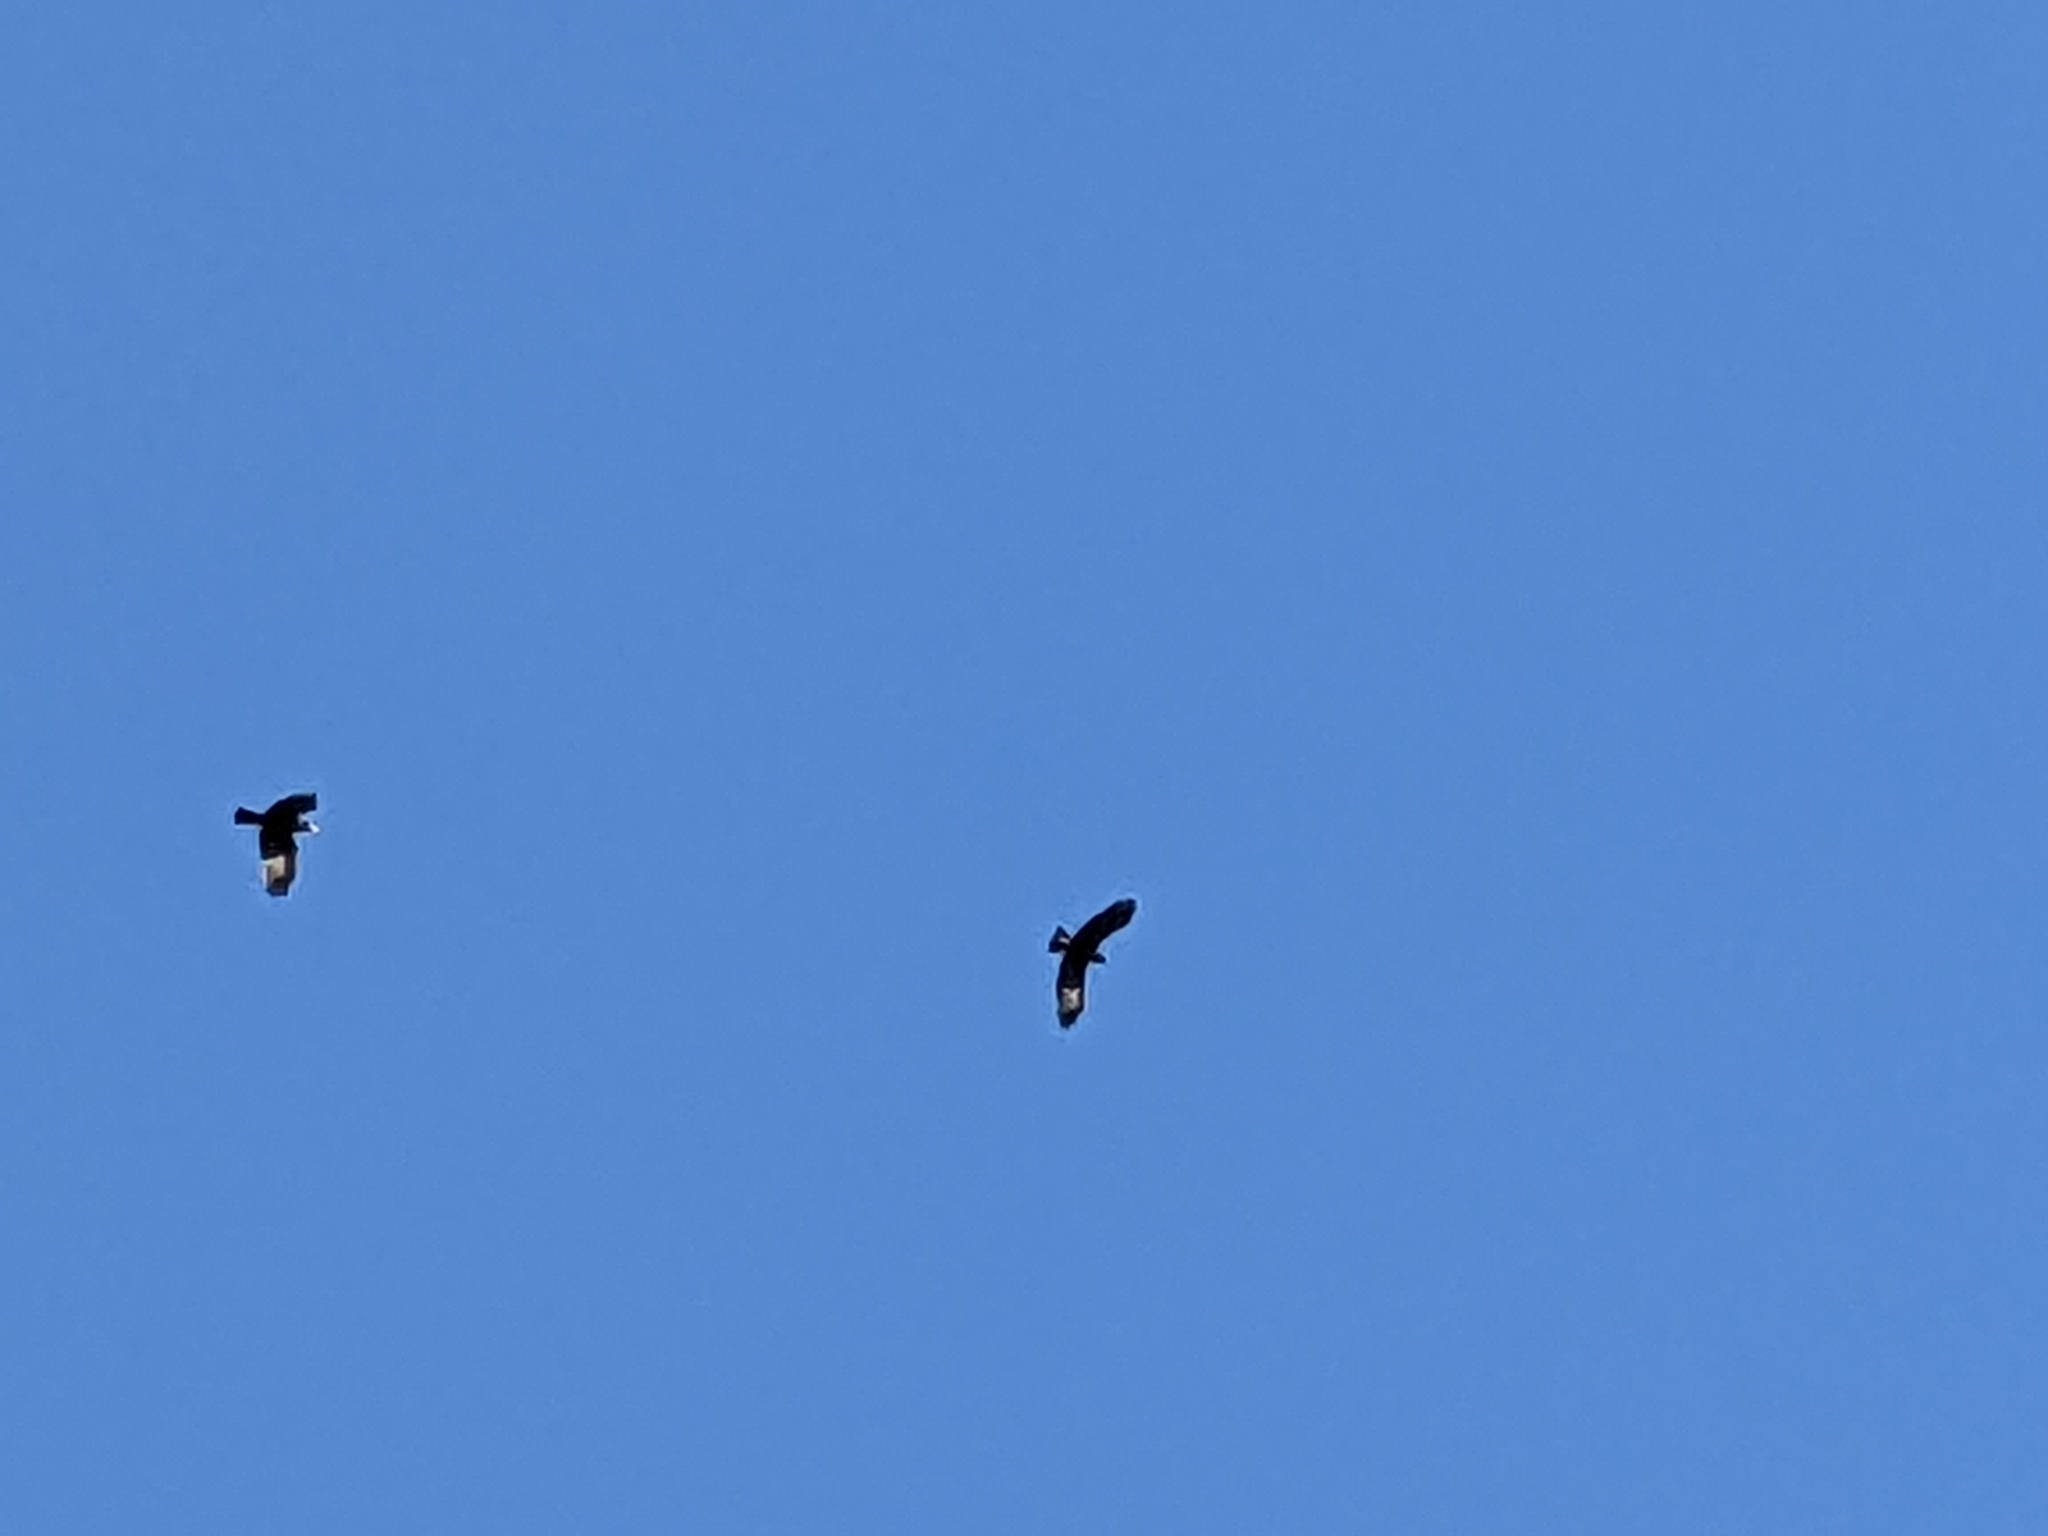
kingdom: Animalia
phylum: Chordata
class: Aves
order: Passeriformes
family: Corvidae
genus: Corvus
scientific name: Corvus brachyrhynchos
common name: American crow
